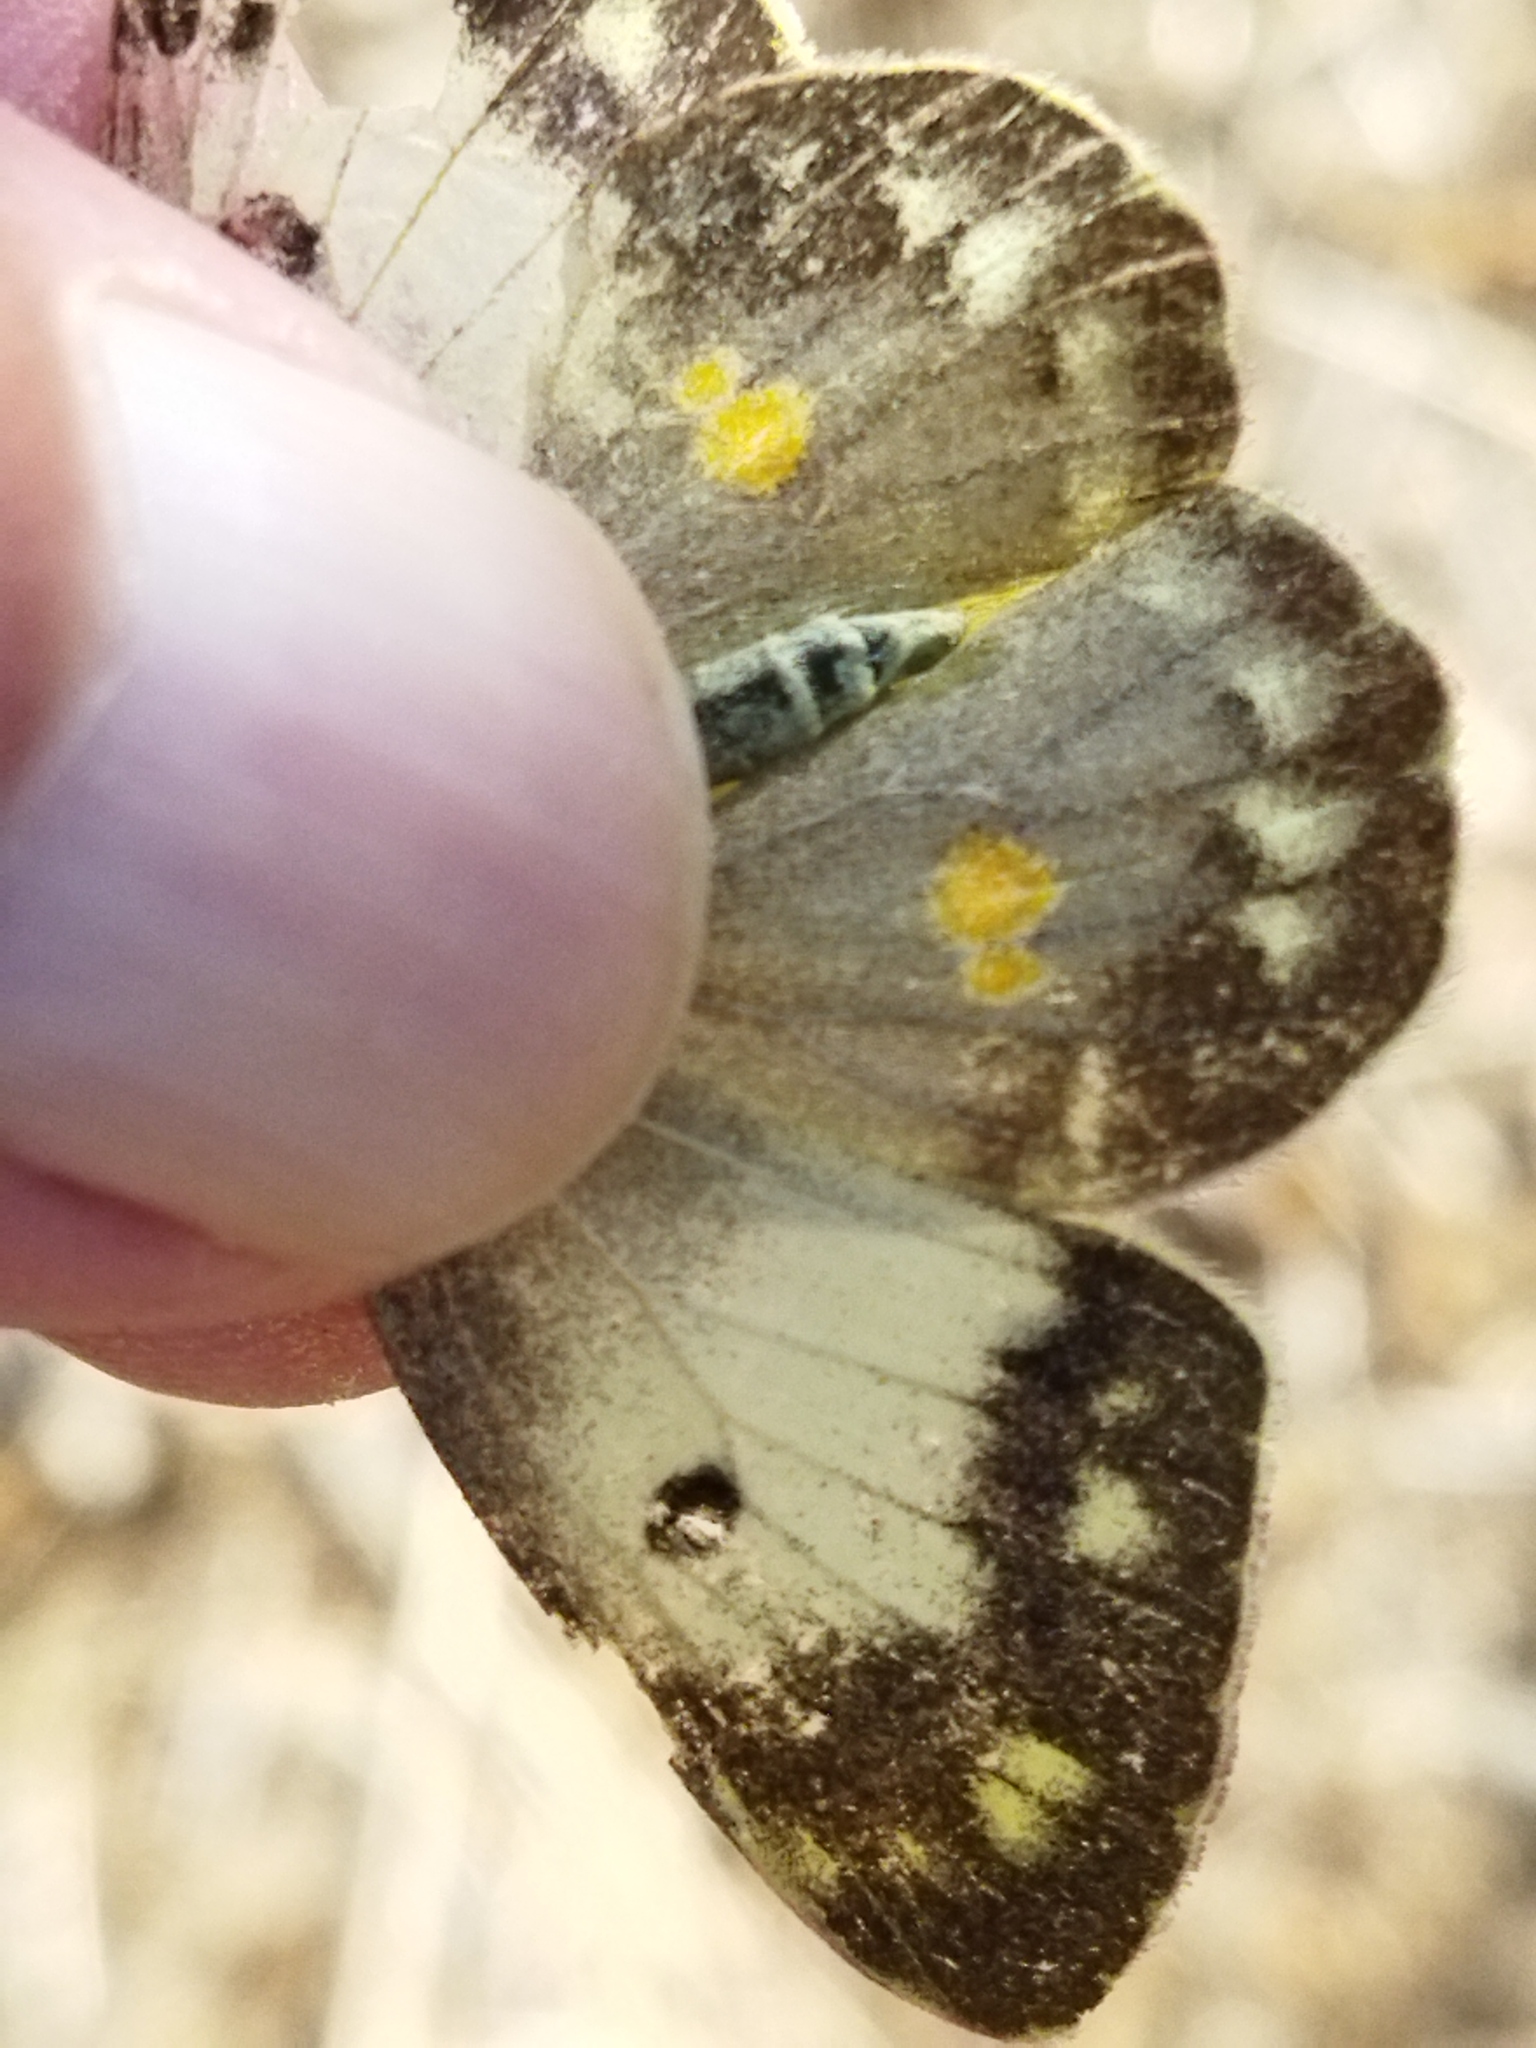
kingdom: Animalia
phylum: Arthropoda
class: Insecta
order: Lepidoptera
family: Pieridae
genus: Colias
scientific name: Colias croceus
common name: Clouded yellow
